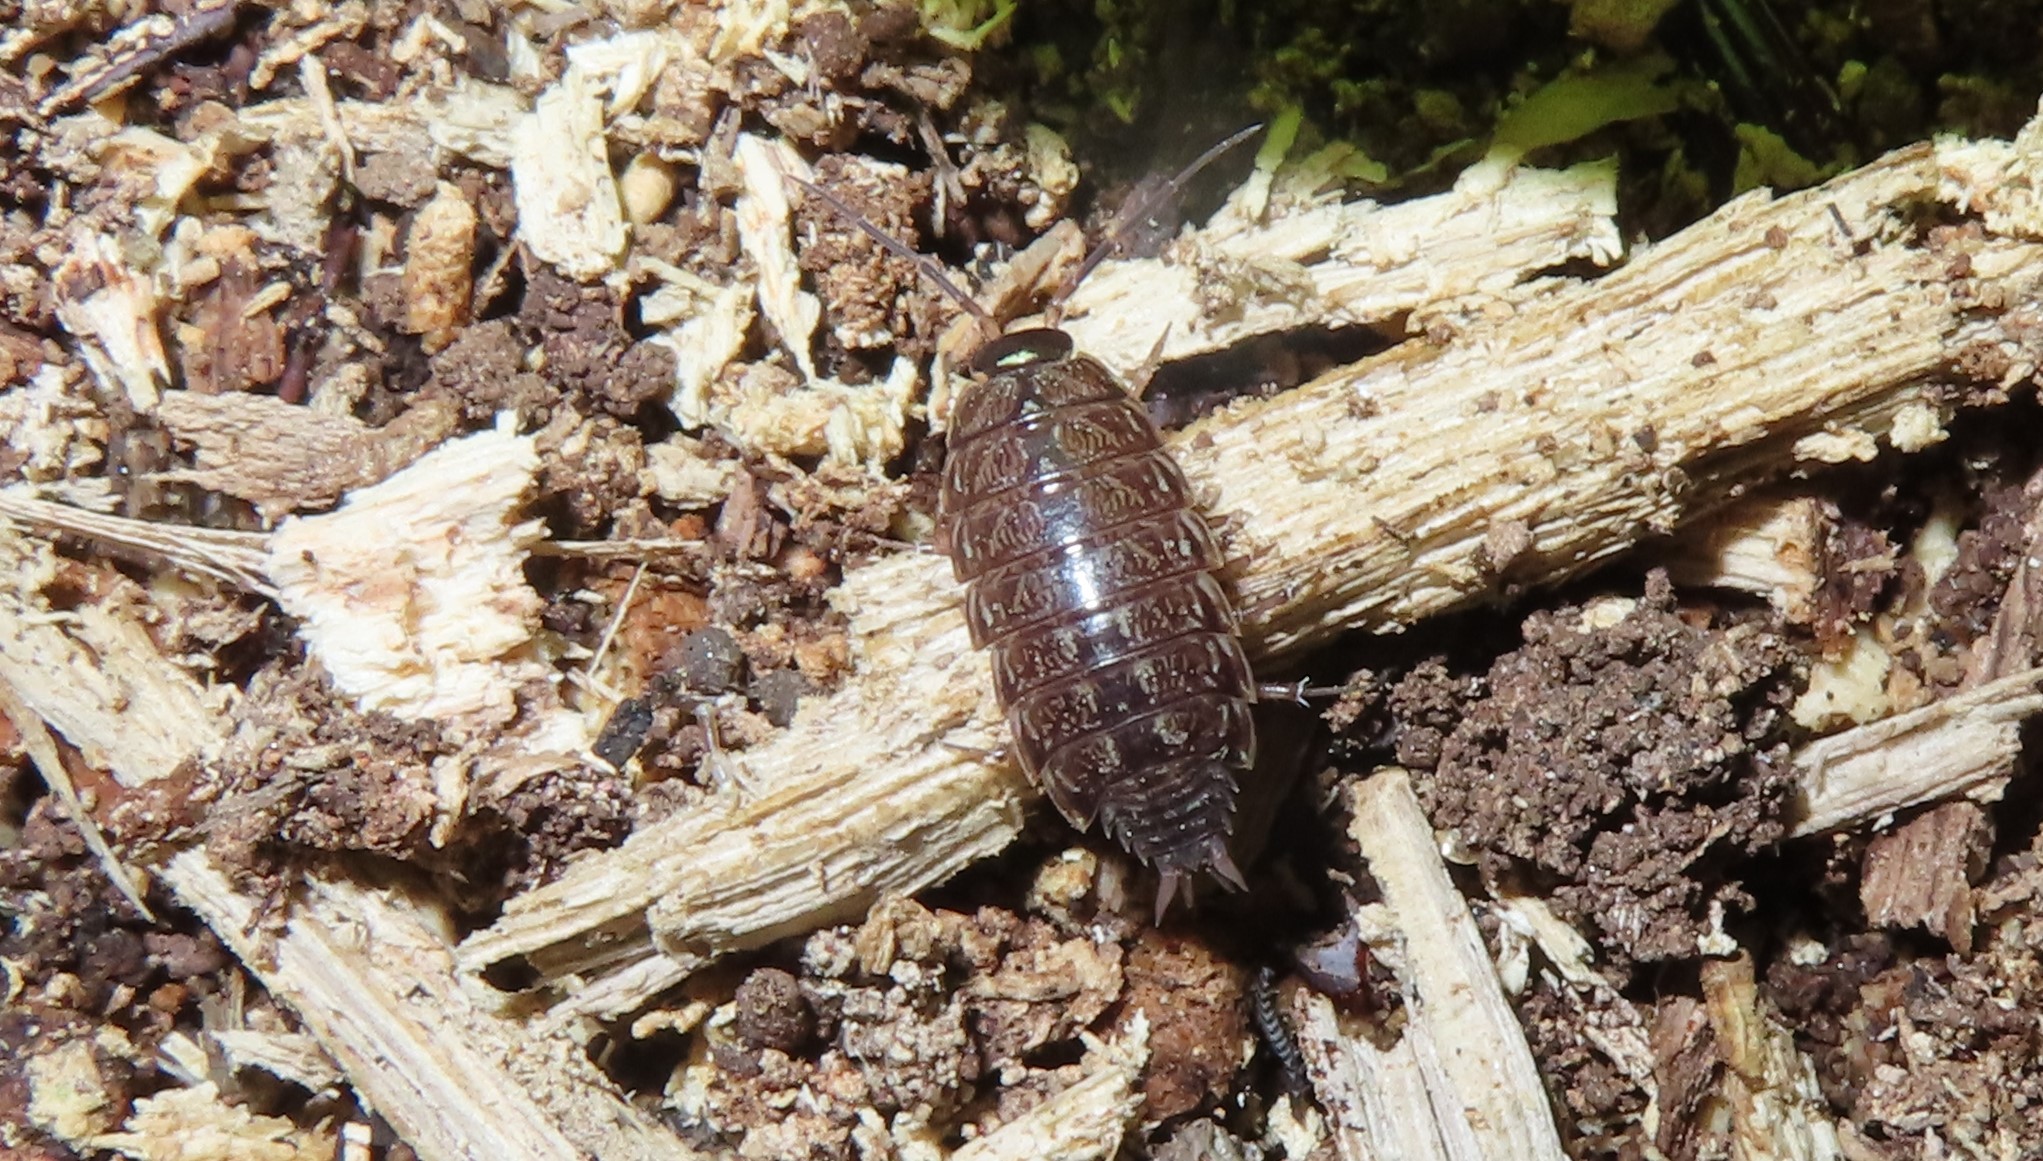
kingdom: Animalia
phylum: Arthropoda
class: Malacostraca
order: Isopoda
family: Philosciidae
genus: Philoscia
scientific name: Philoscia muscorum
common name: Common striped woodlouse
